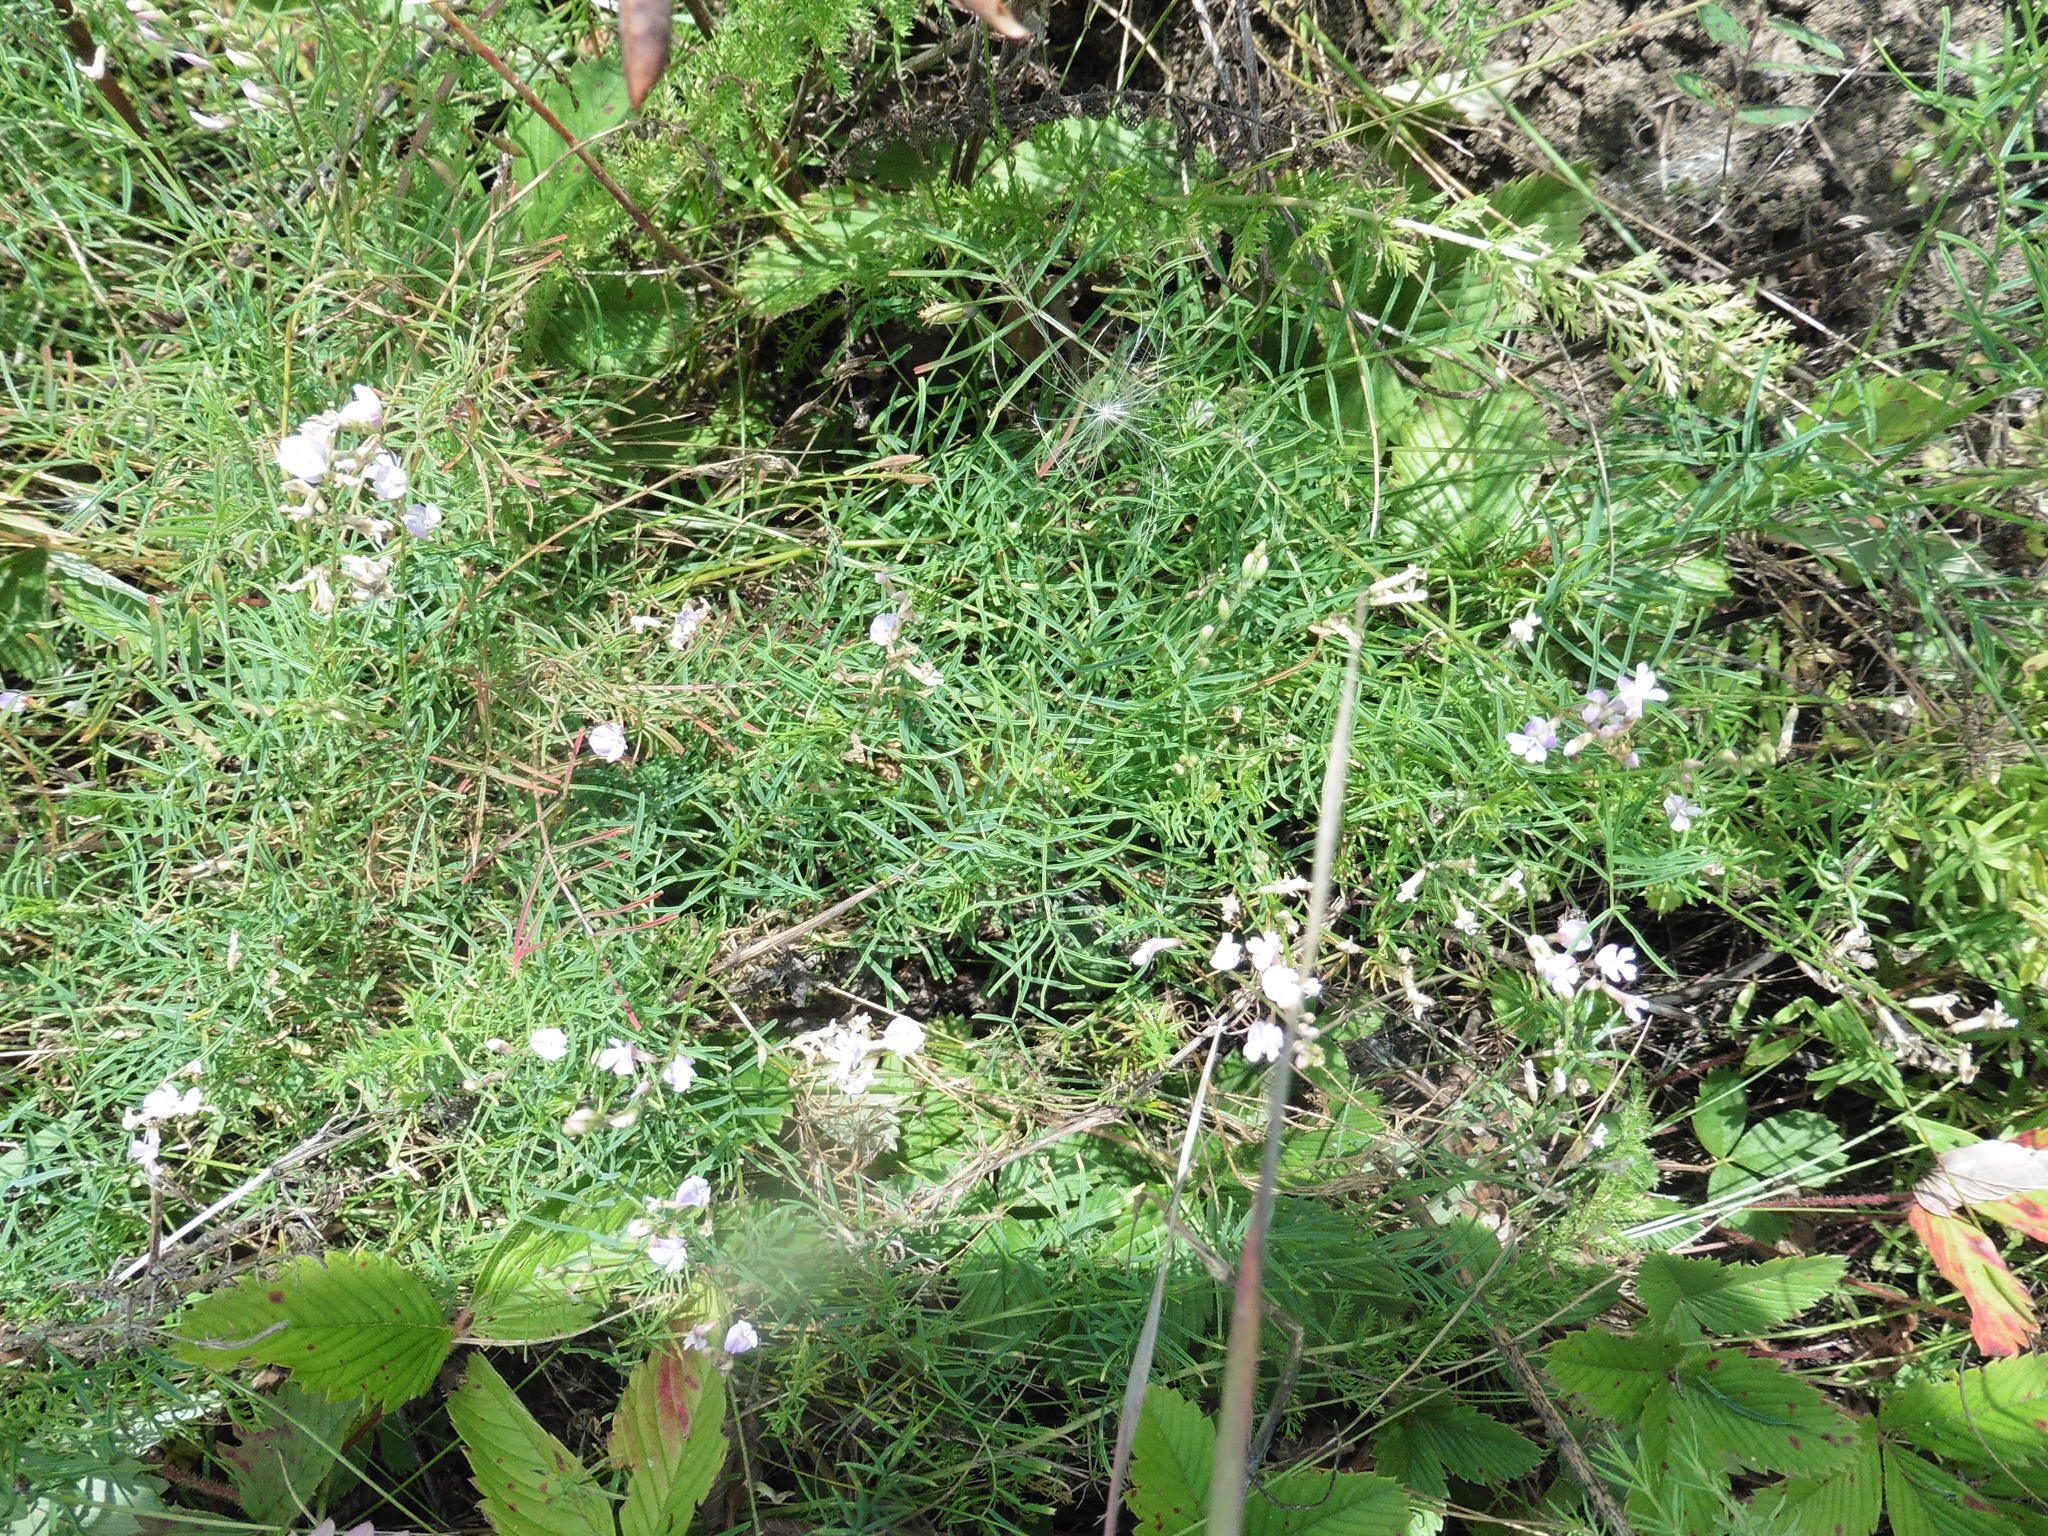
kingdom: Plantae
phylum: Tracheophyta
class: Magnoliopsida
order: Fabales
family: Fabaceae
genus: Astragalus
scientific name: Astragalus austriacus
